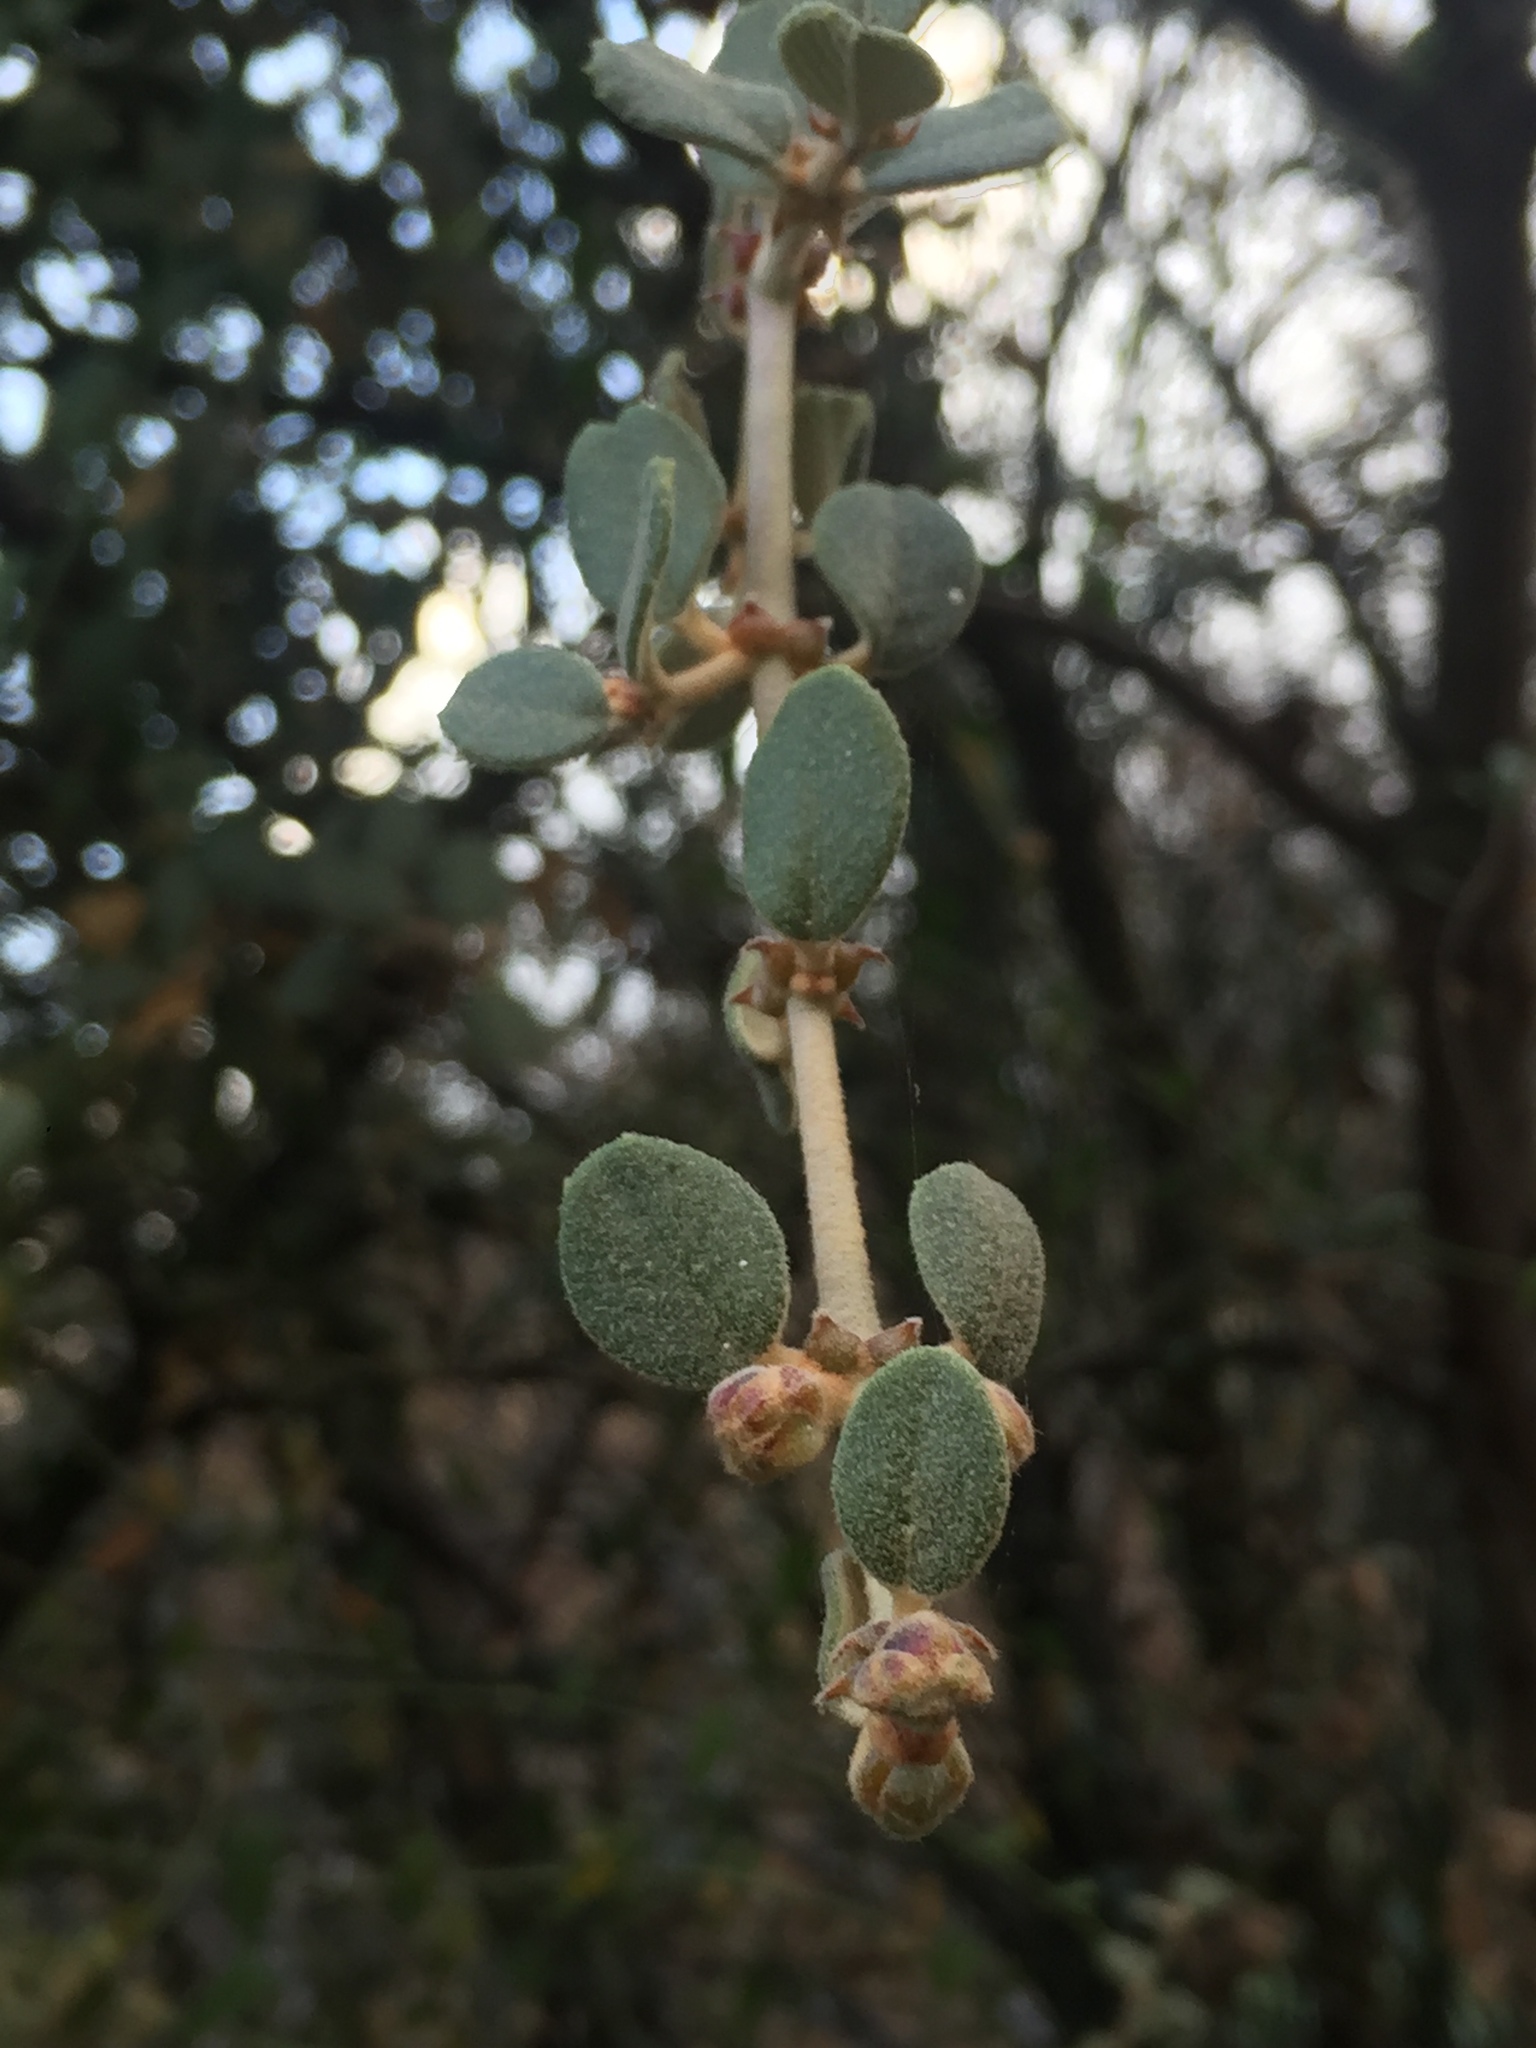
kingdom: Plantae
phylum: Tracheophyta
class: Magnoliopsida
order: Rosales
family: Rhamnaceae
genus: Ceanothus
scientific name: Ceanothus crassifolius
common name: Hoaryleaf ceanothus
